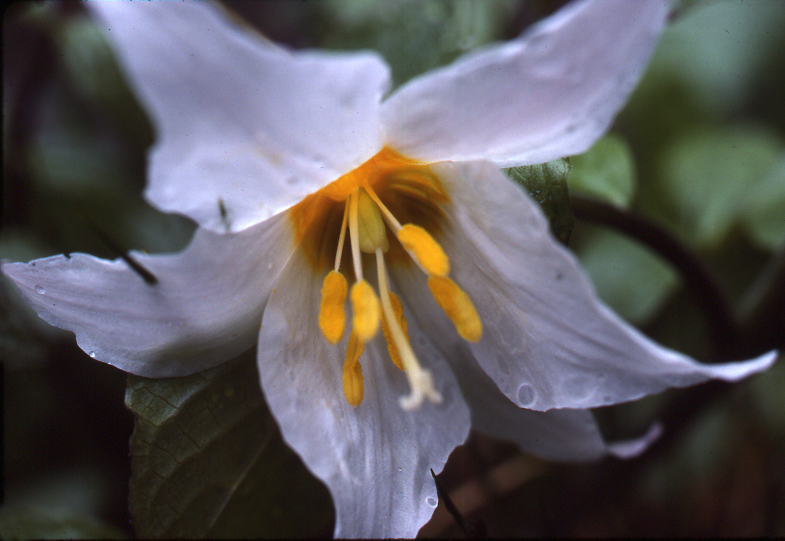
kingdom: Plantae
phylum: Tracheophyta
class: Liliopsida
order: Liliales
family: Liliaceae
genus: Erythronium
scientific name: Erythronium montanum
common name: Avalanche lily
